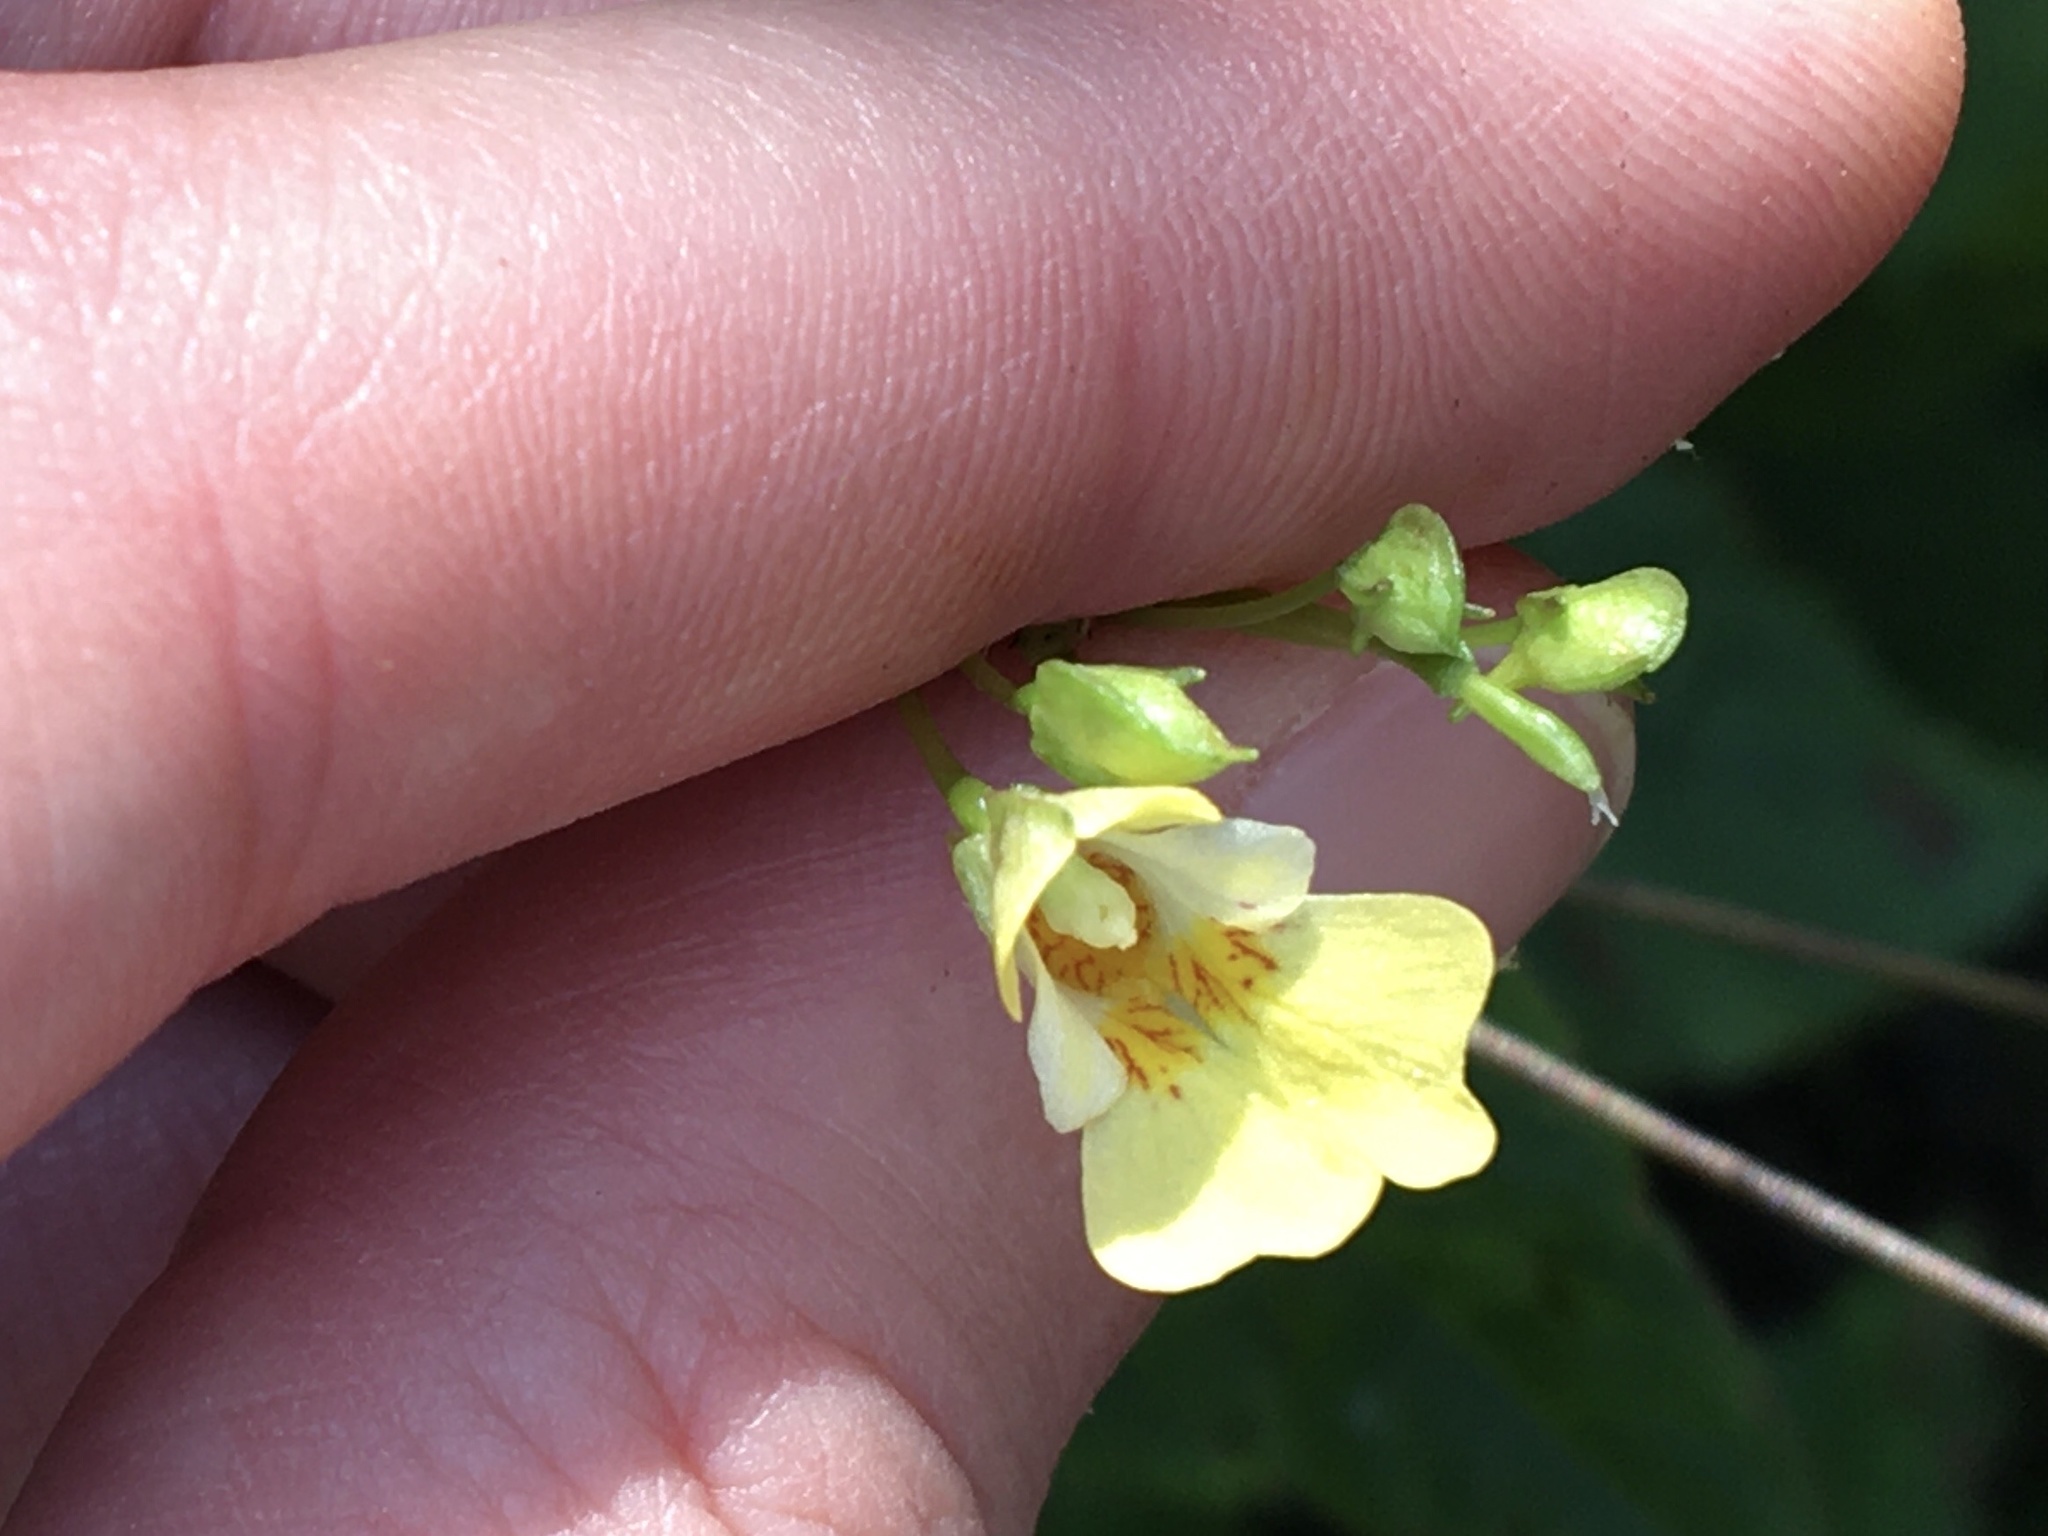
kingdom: Plantae
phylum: Tracheophyta
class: Magnoliopsida
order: Ericales
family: Balsaminaceae
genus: Impatiens
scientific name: Impatiens parviflora
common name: Small balsam
